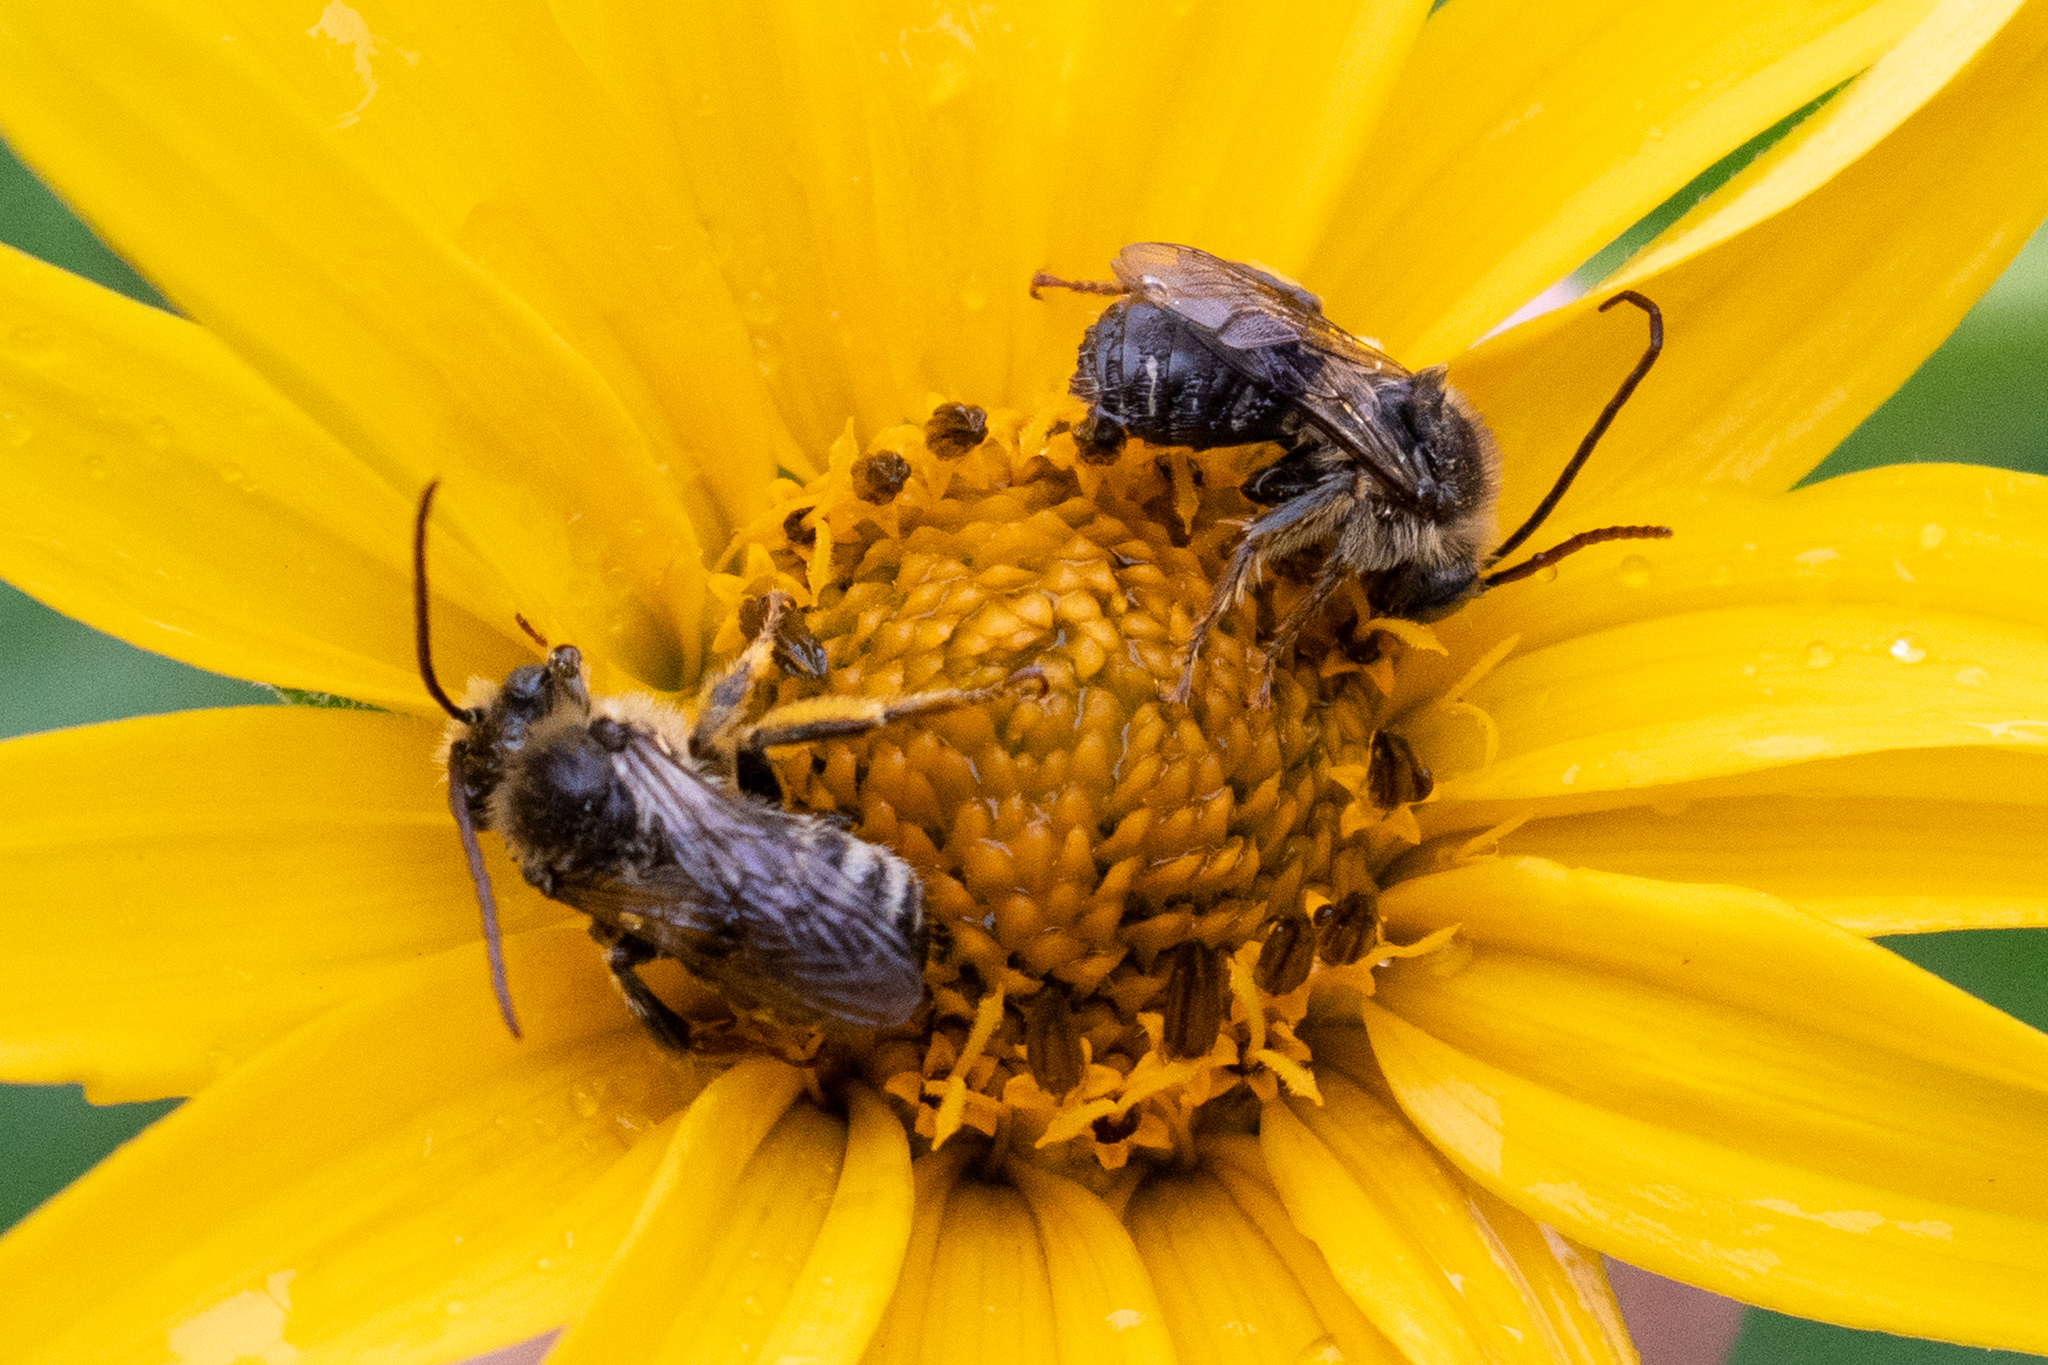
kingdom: Animalia
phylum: Arthropoda
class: Insecta
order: Hymenoptera
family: Apidae
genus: Melissodes
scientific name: Melissodes trinodis
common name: Dark-veined longhorn
